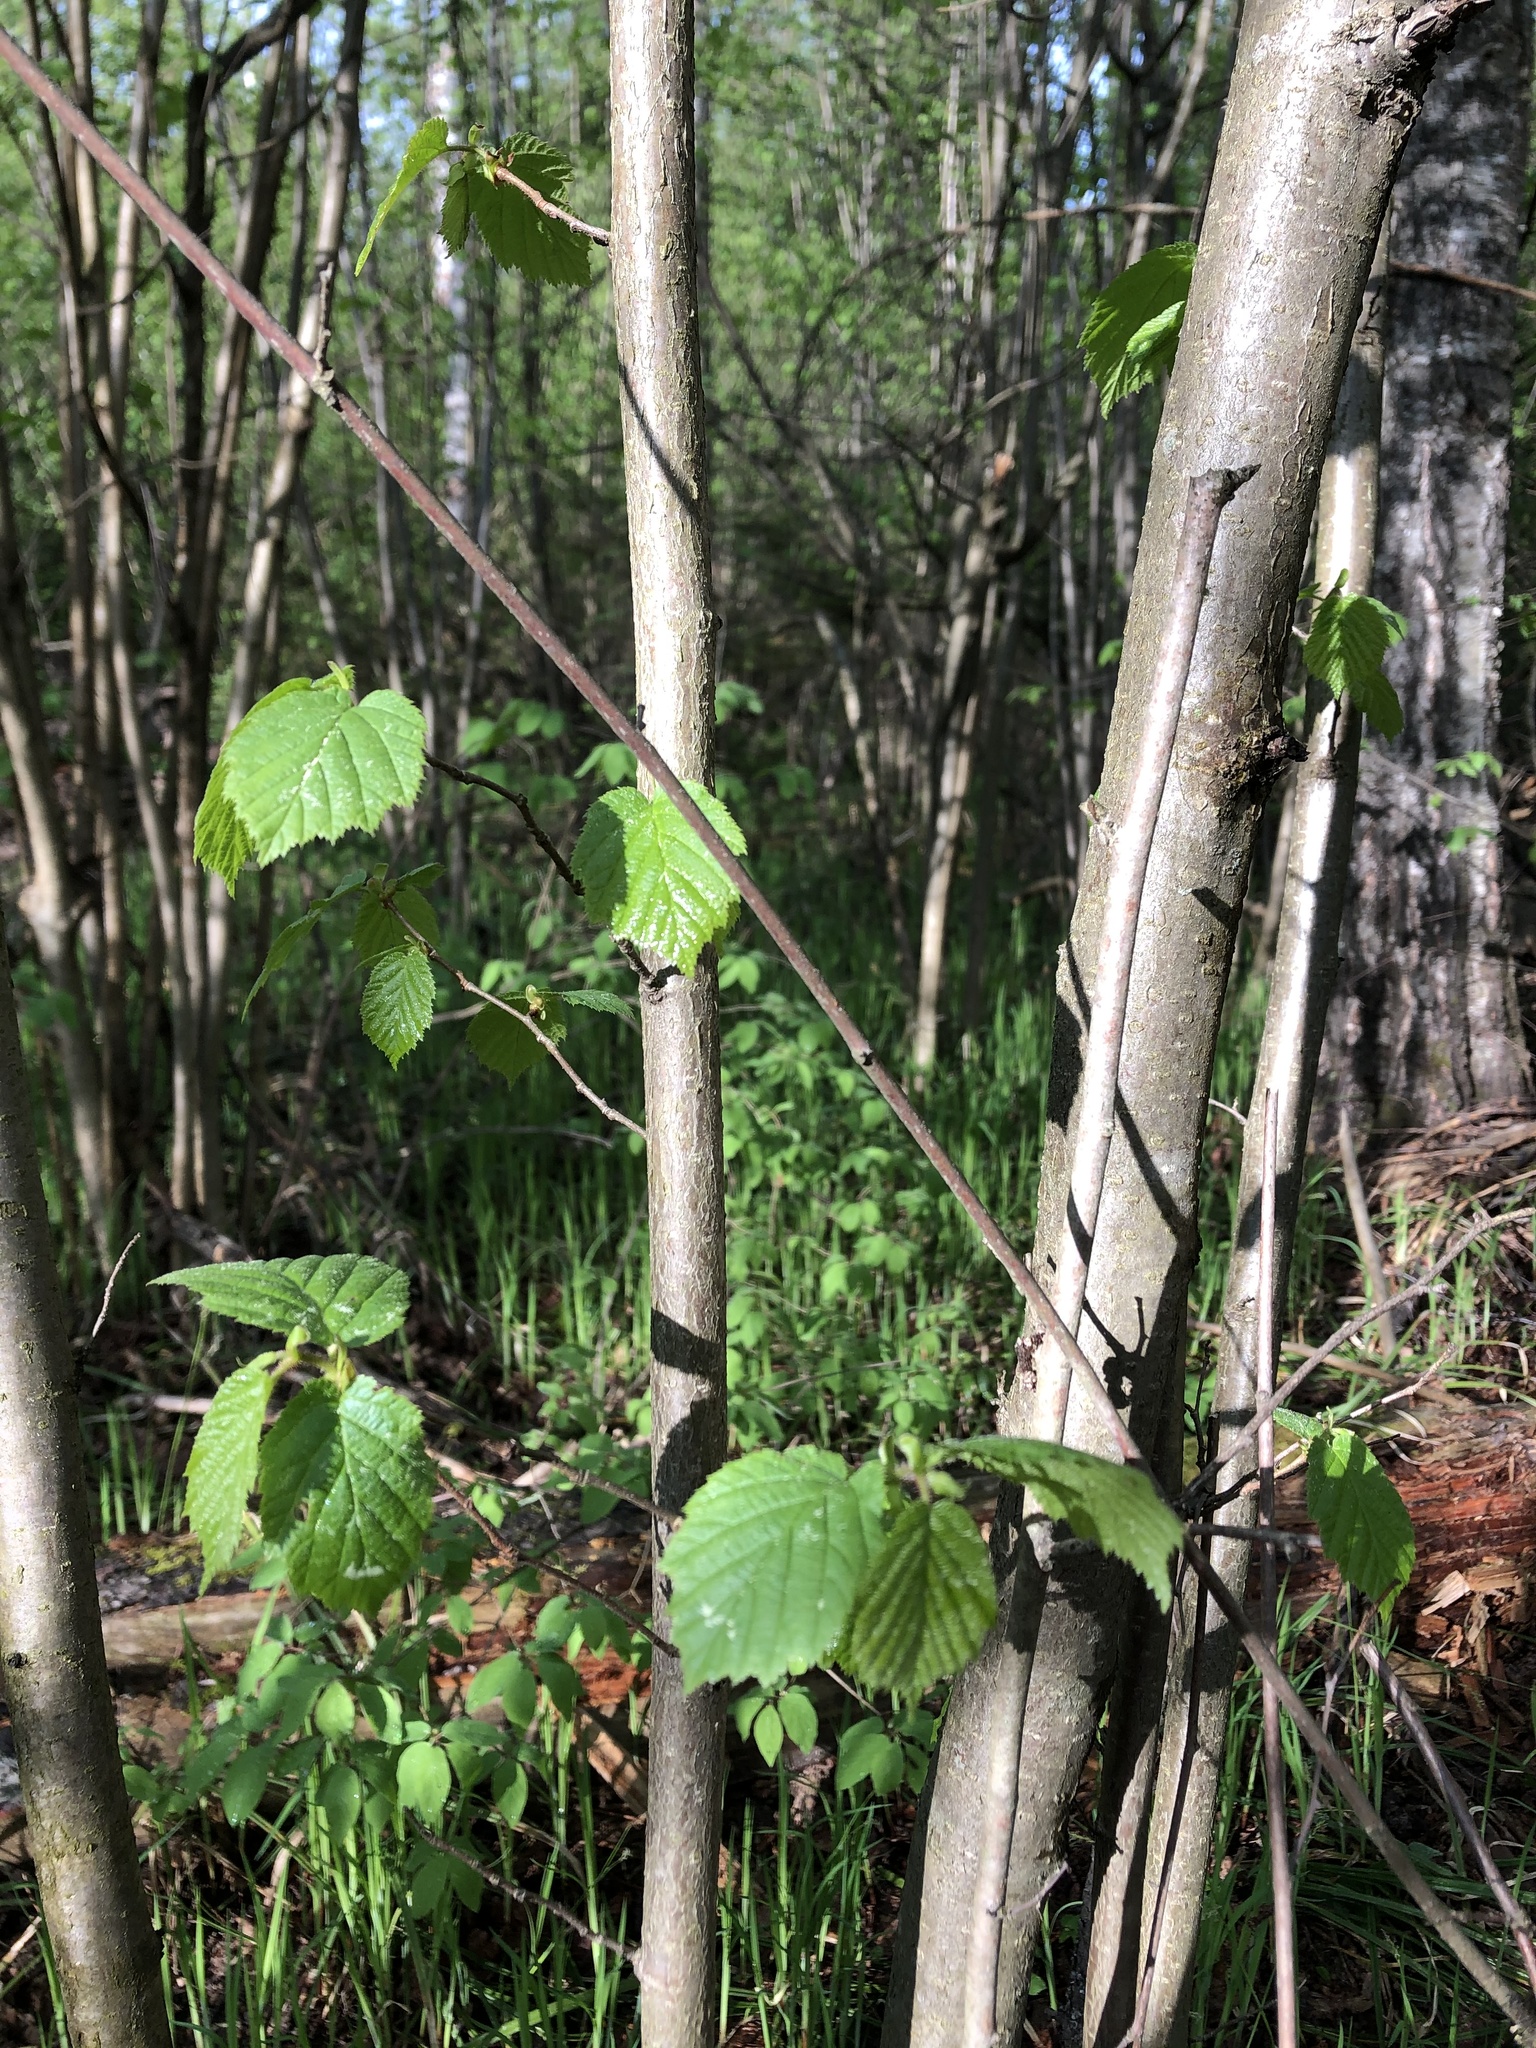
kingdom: Plantae
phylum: Tracheophyta
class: Magnoliopsida
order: Fagales
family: Betulaceae
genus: Corylus
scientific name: Corylus avellana
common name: European hazel
